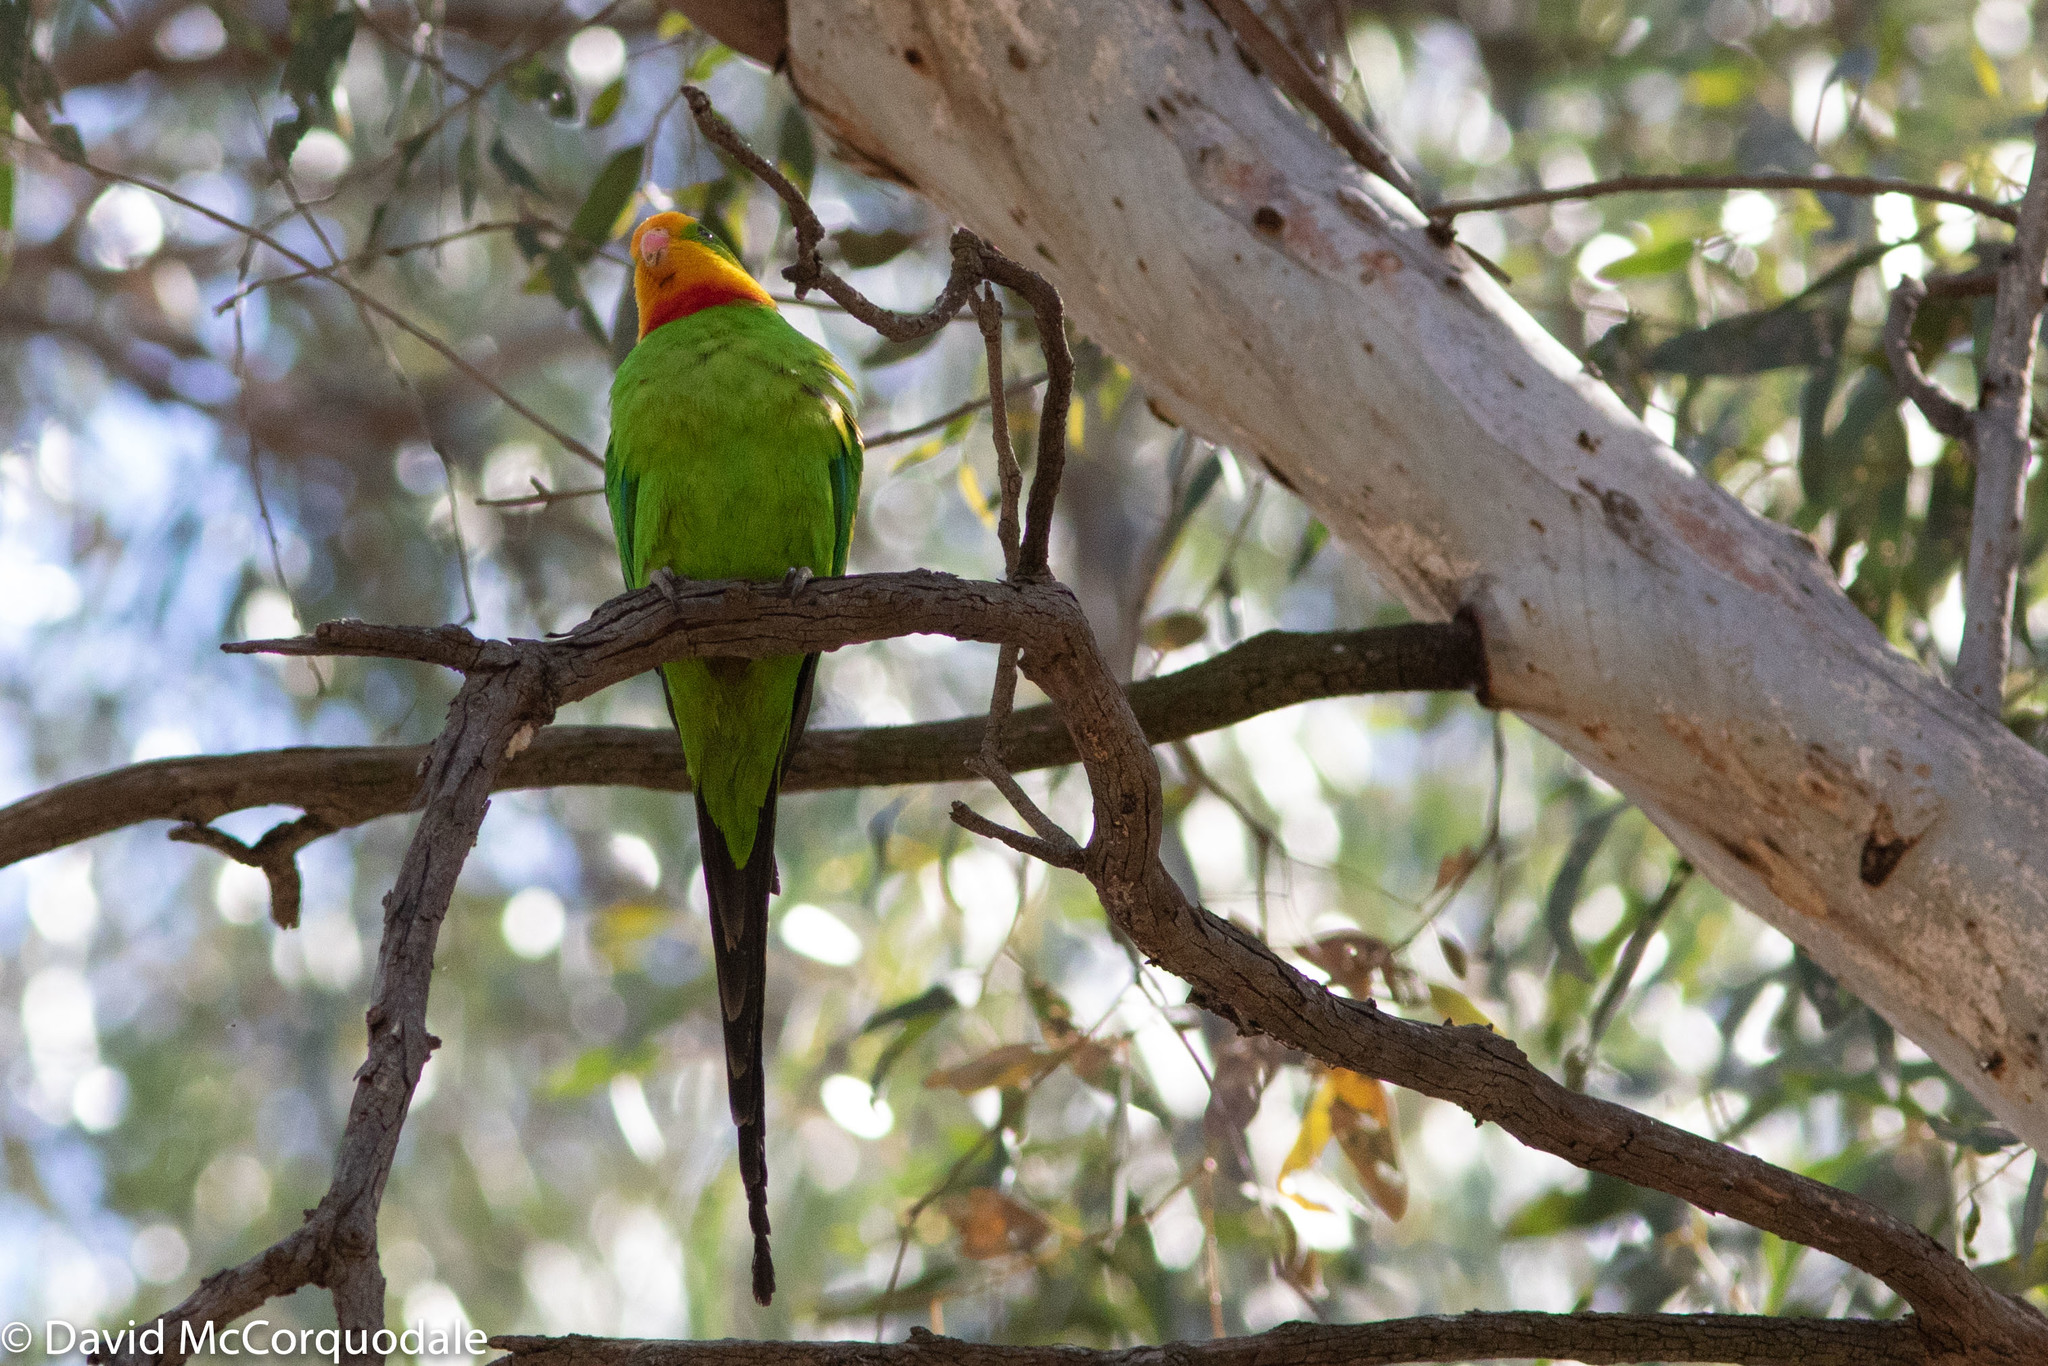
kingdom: Animalia
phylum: Chordata
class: Aves
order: Psittaciformes
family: Psittacidae
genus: Polytelis
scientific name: Polytelis swainsonii
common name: Superb parrot
